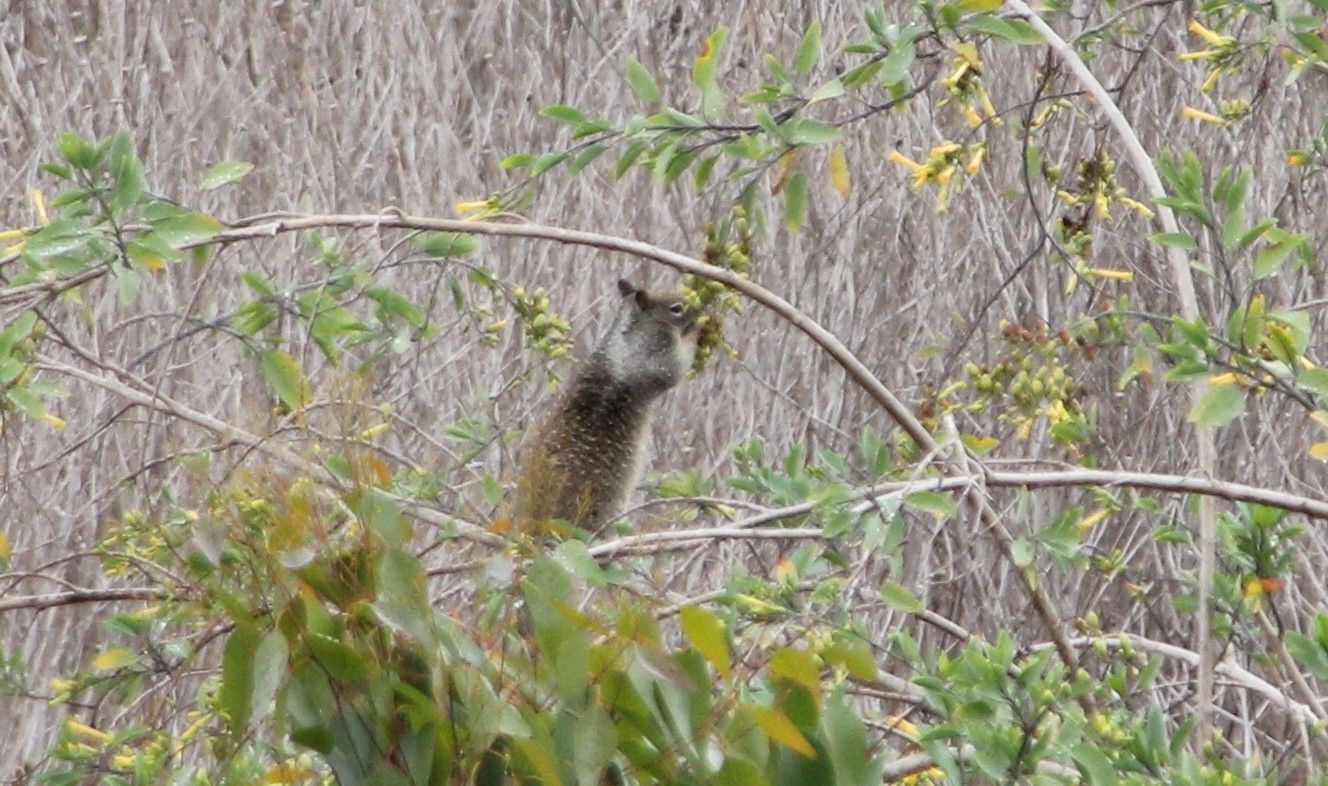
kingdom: Animalia
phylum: Chordata
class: Mammalia
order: Rodentia
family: Sciuridae
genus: Otospermophilus
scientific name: Otospermophilus beecheyi
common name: California ground squirrel
